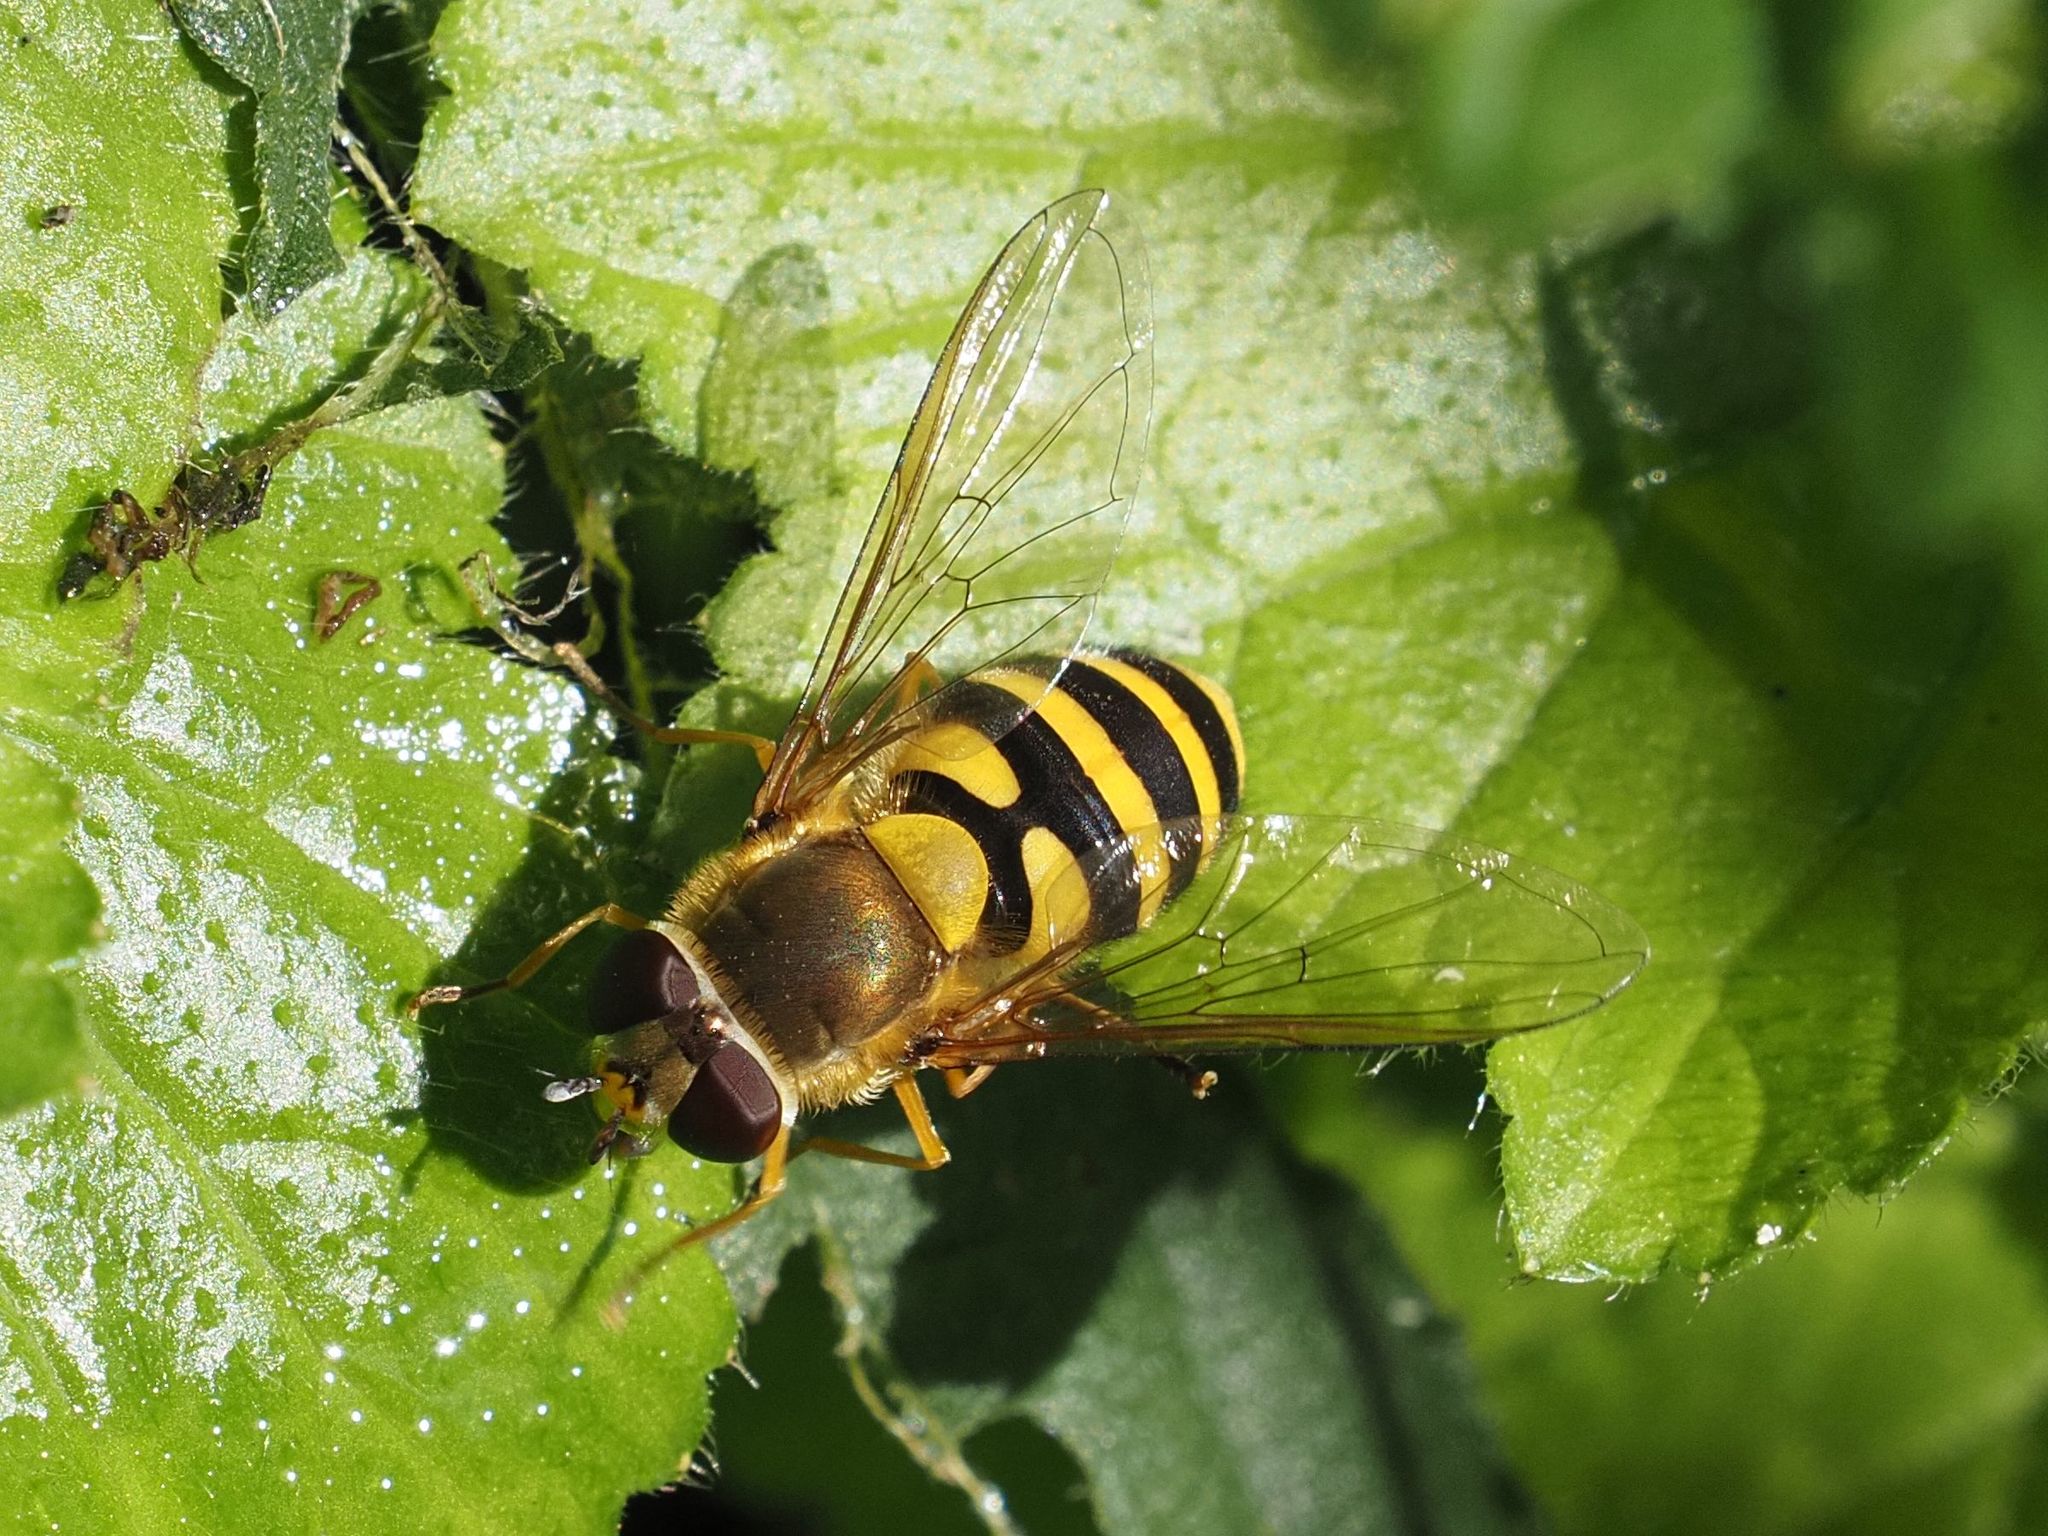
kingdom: Animalia
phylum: Arthropoda
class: Insecta
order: Diptera
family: Syrphidae
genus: Syrphus
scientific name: Syrphus
